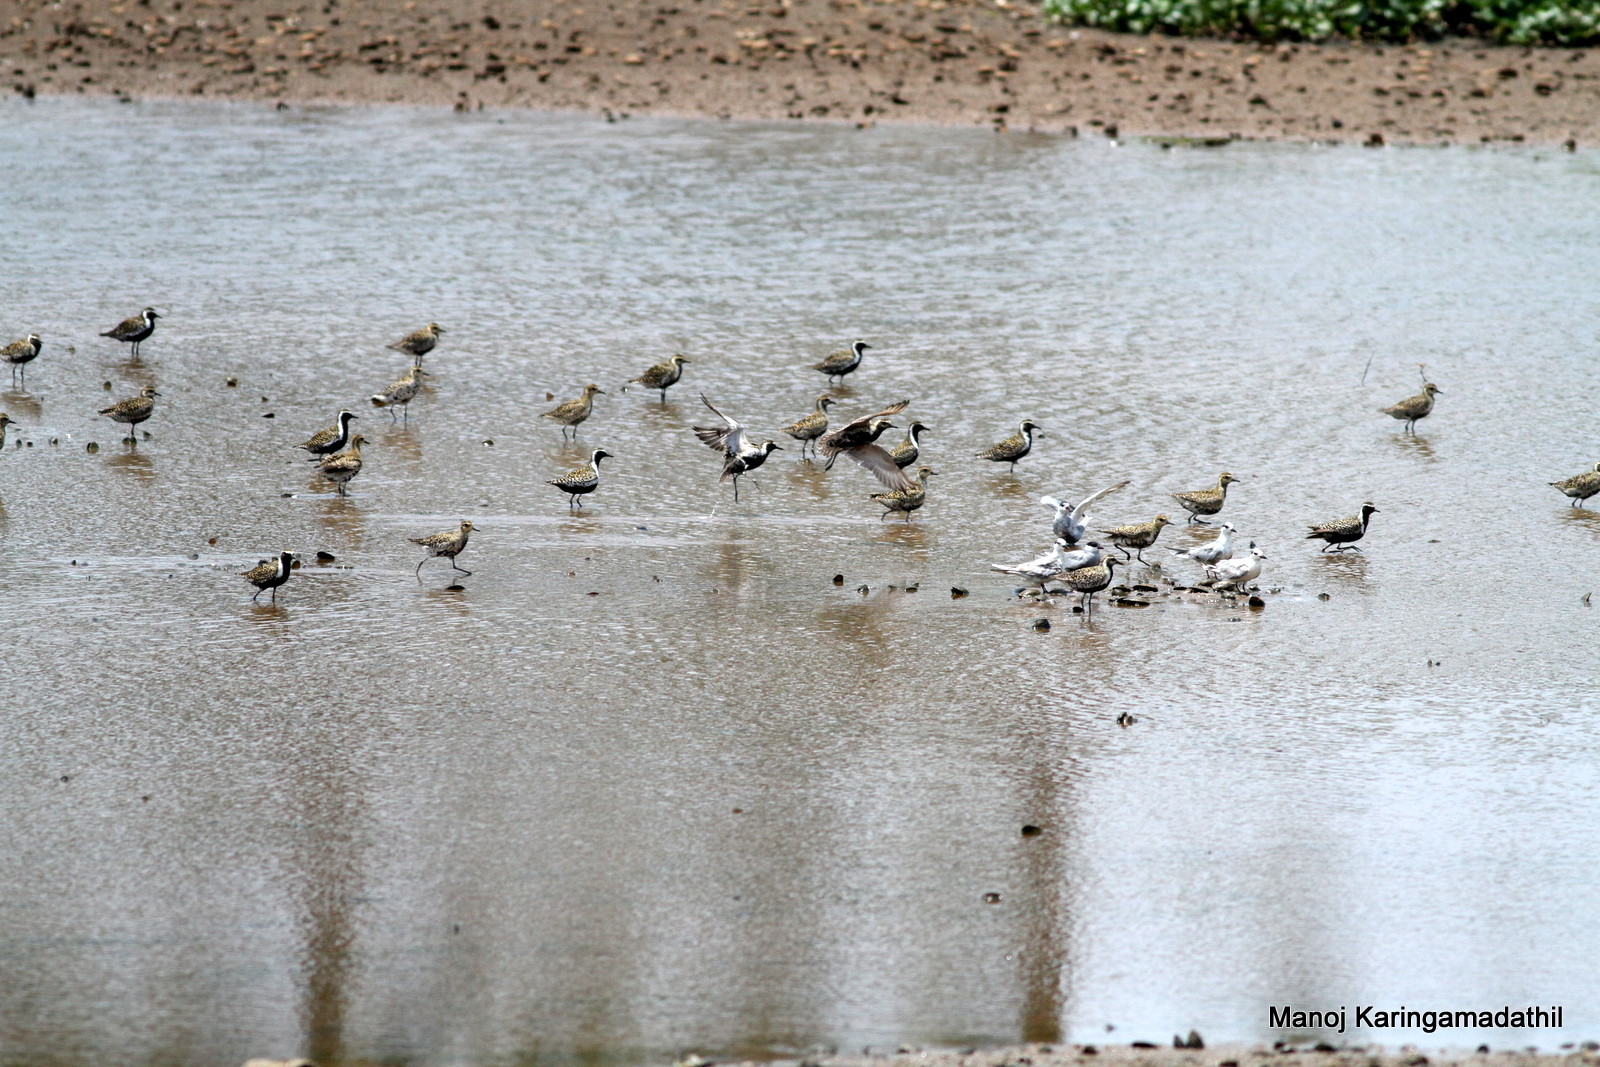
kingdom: Animalia
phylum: Chordata
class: Aves
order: Charadriiformes
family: Charadriidae
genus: Pluvialis
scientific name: Pluvialis fulva
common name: Pacific golden plover
